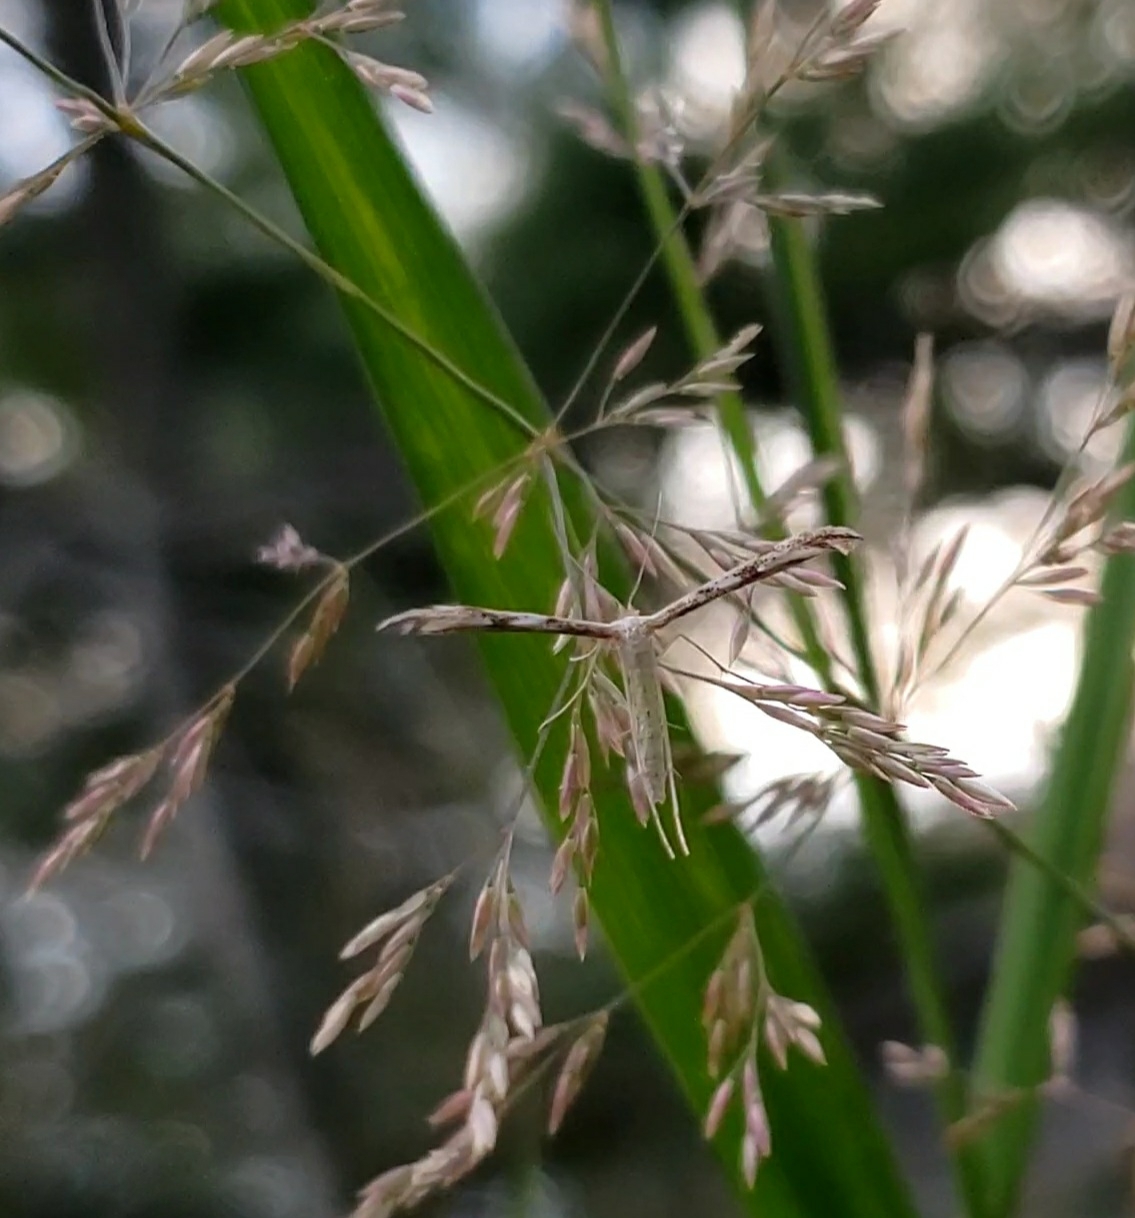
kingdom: Animalia
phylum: Arthropoda
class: Insecta
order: Lepidoptera
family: Pterophoridae
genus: Adaina
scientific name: Adaina montanus
